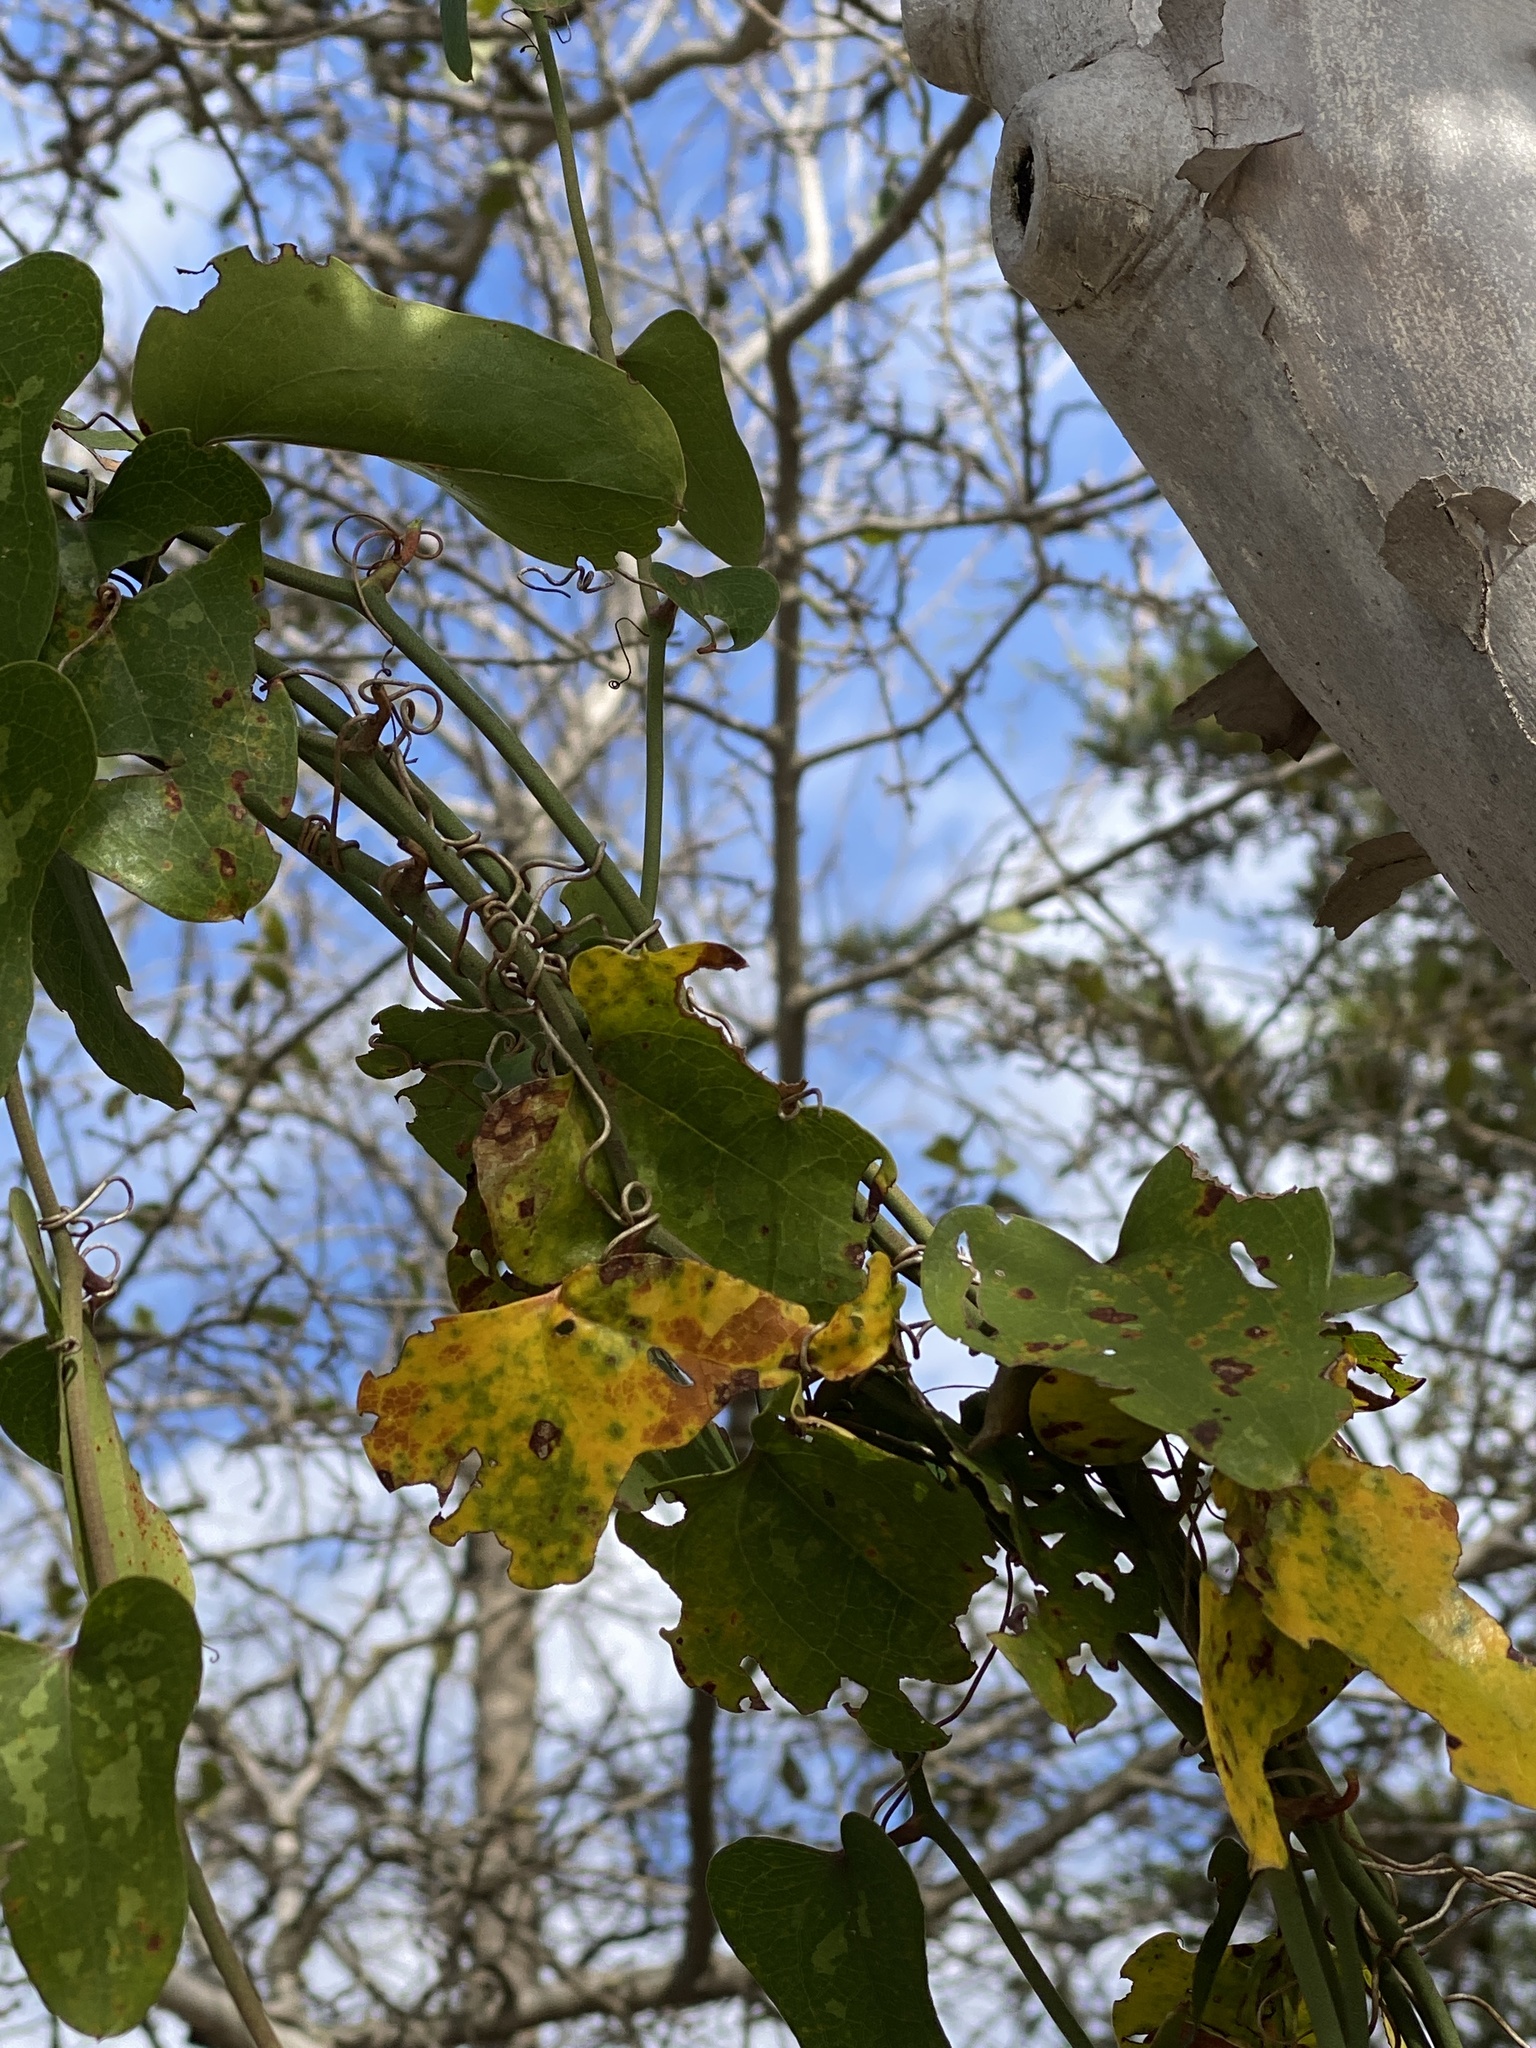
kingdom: Plantae
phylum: Tracheophyta
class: Liliopsida
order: Liliales
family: Smilacaceae
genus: Smilax
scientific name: Smilax bona-nox
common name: Catbrier
